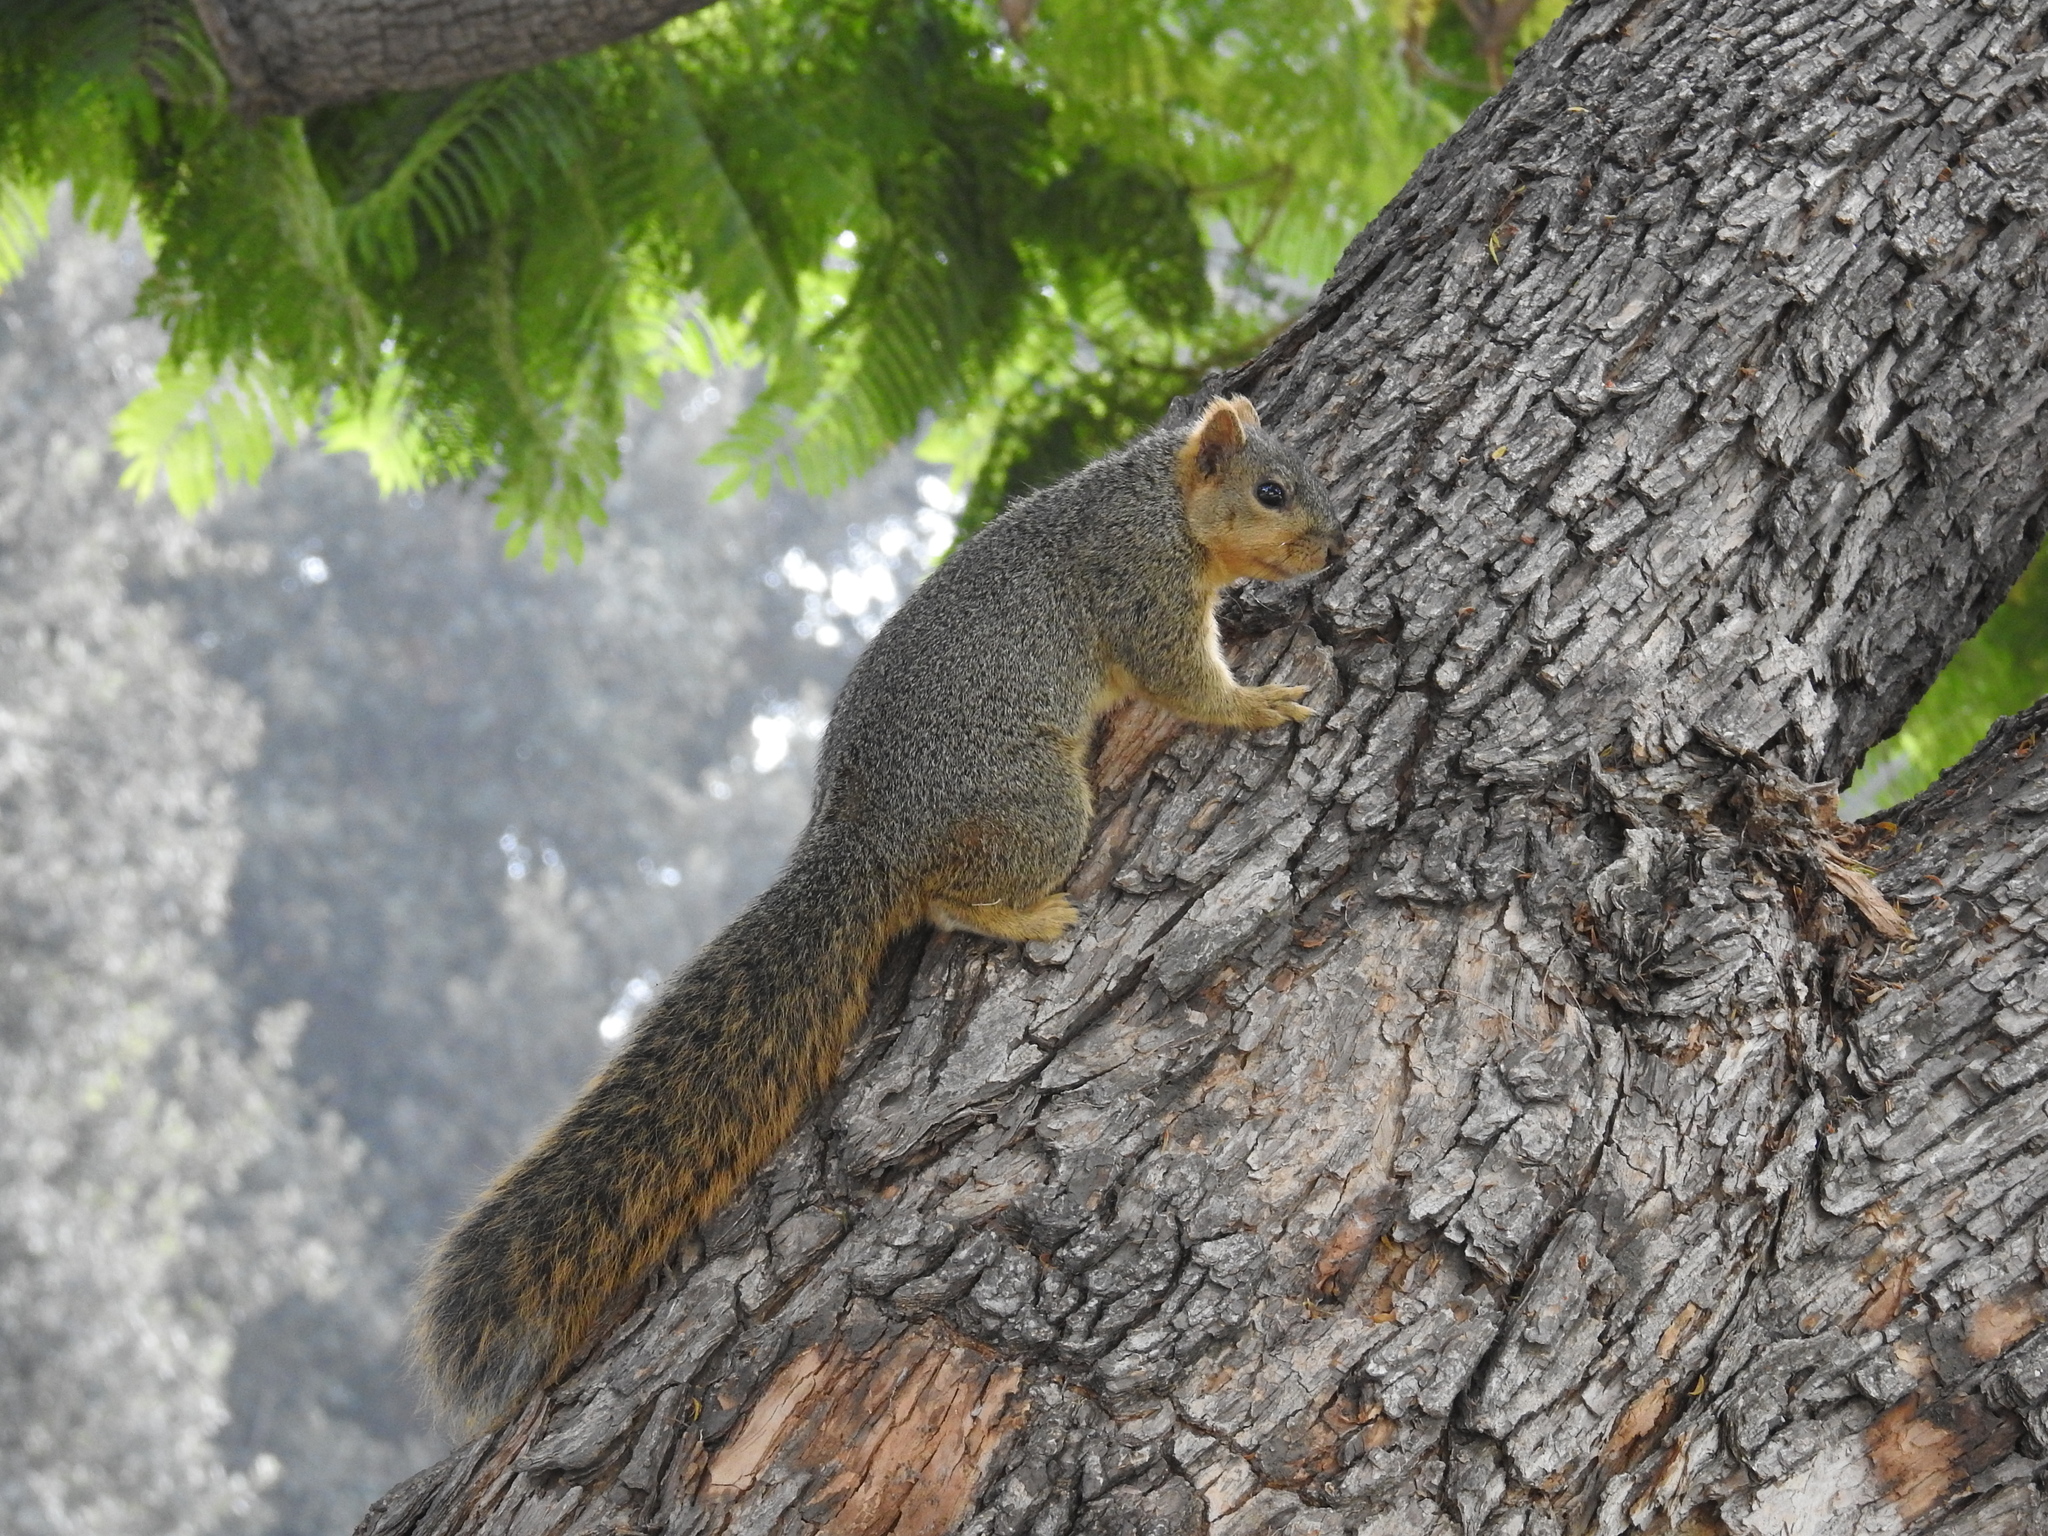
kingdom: Animalia
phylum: Chordata
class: Mammalia
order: Rodentia
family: Sciuridae
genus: Sciurus
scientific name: Sciurus niger
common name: Fox squirrel
